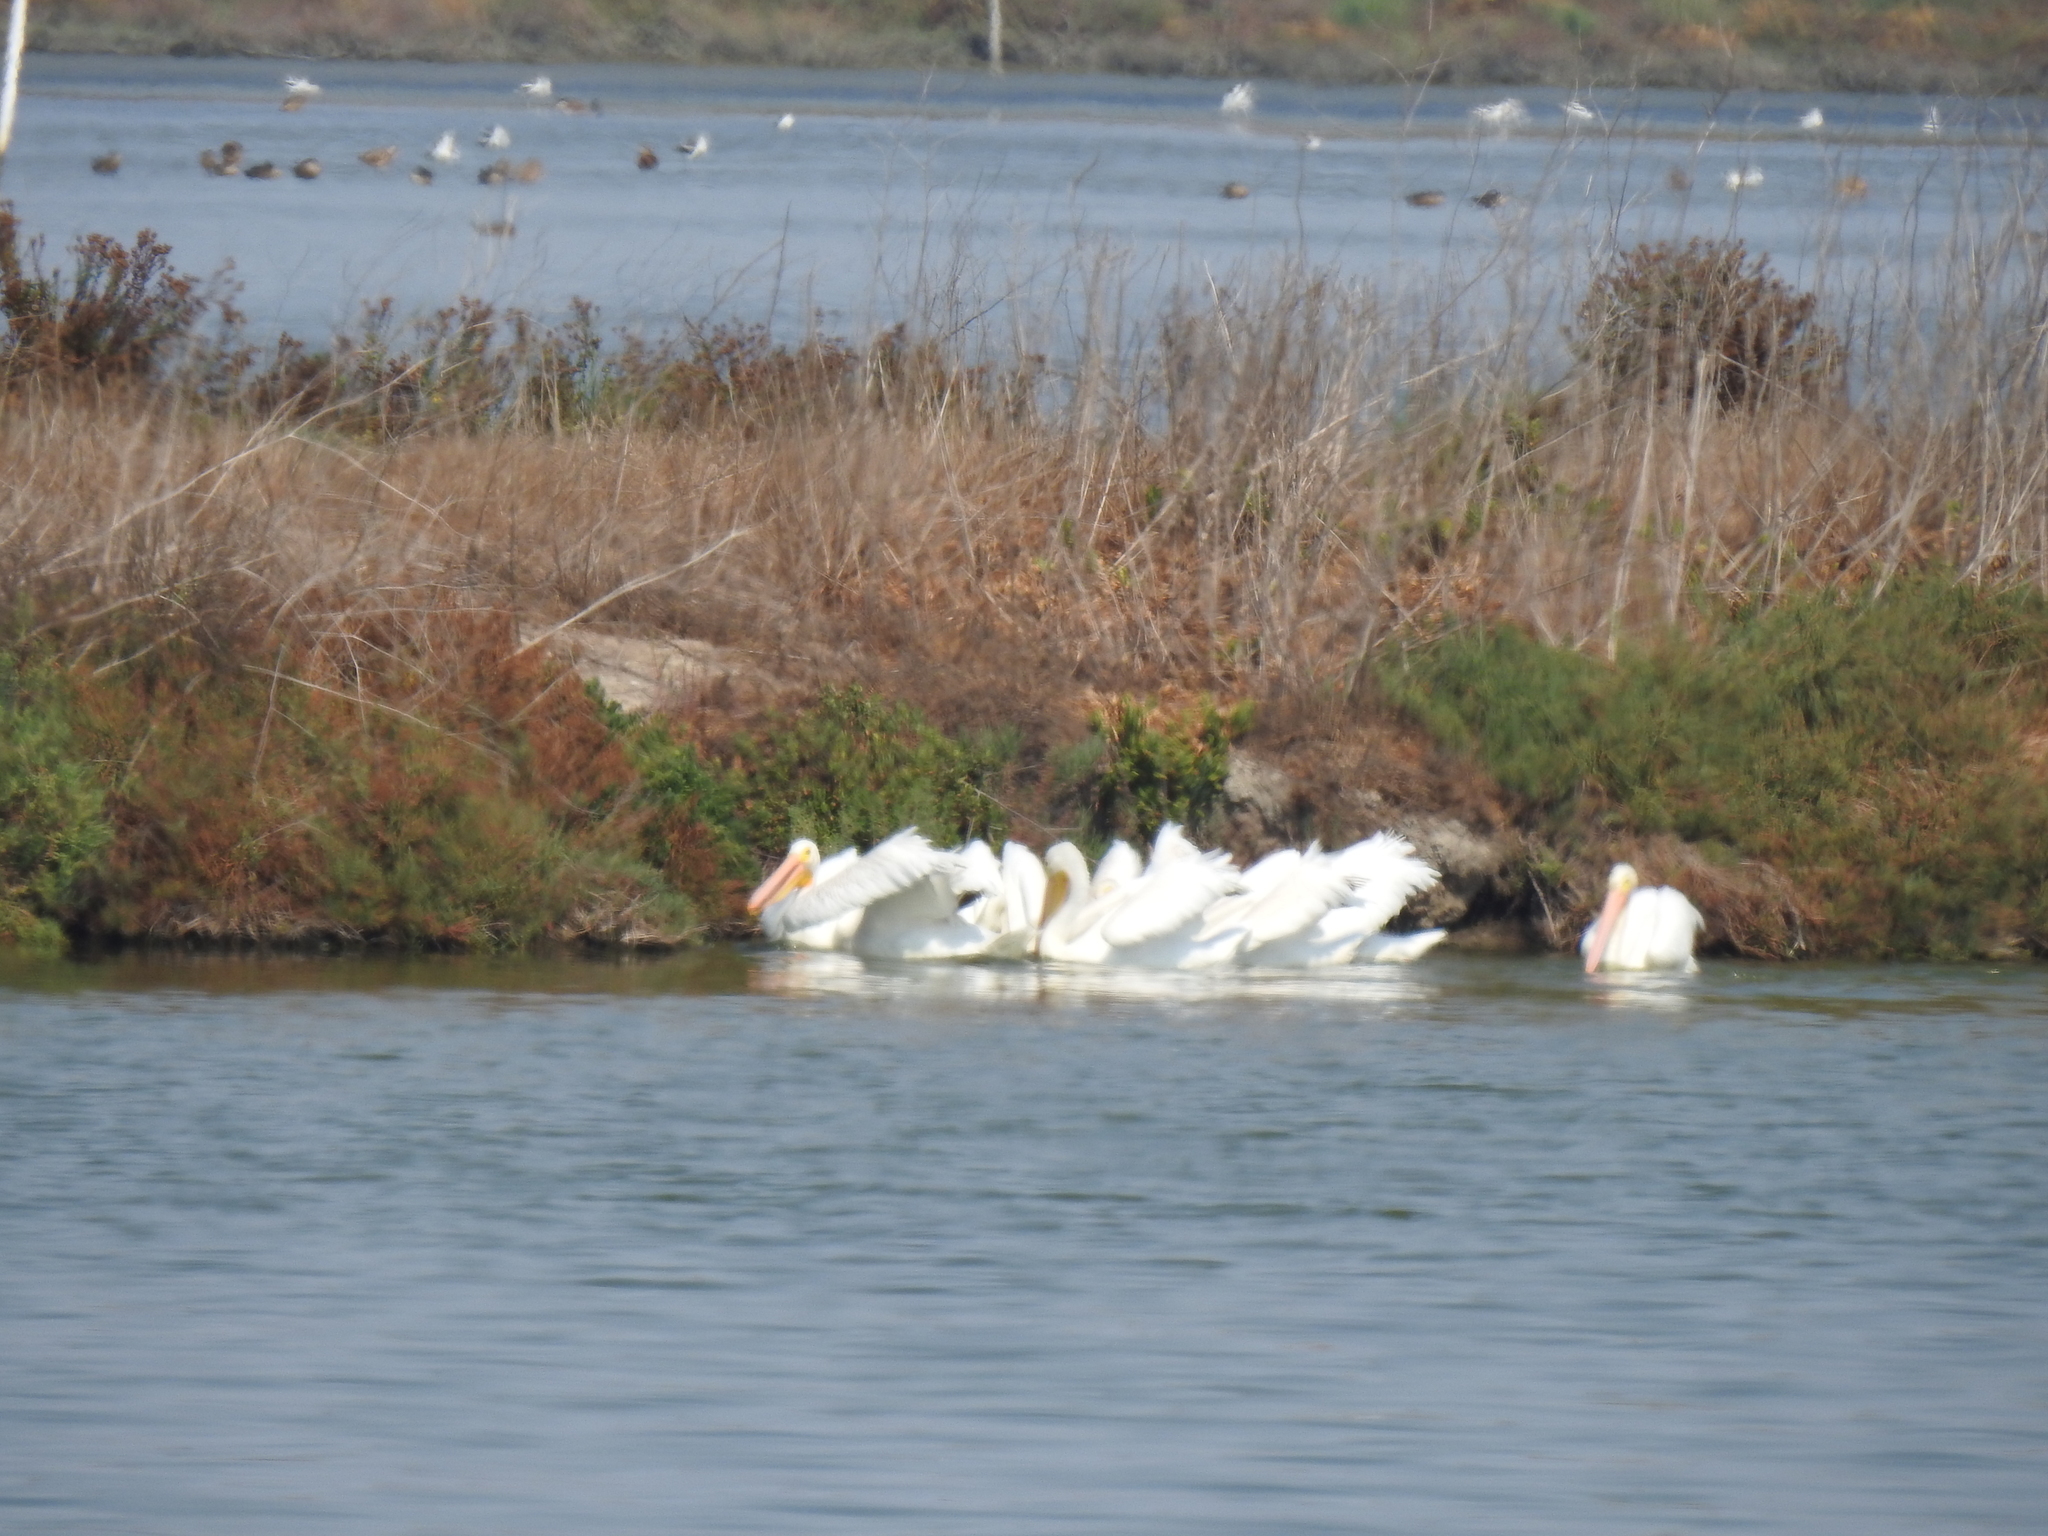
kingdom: Animalia
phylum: Chordata
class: Aves
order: Pelecaniformes
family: Pelecanidae
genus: Pelecanus
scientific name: Pelecanus erythrorhynchos
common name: American white pelican
